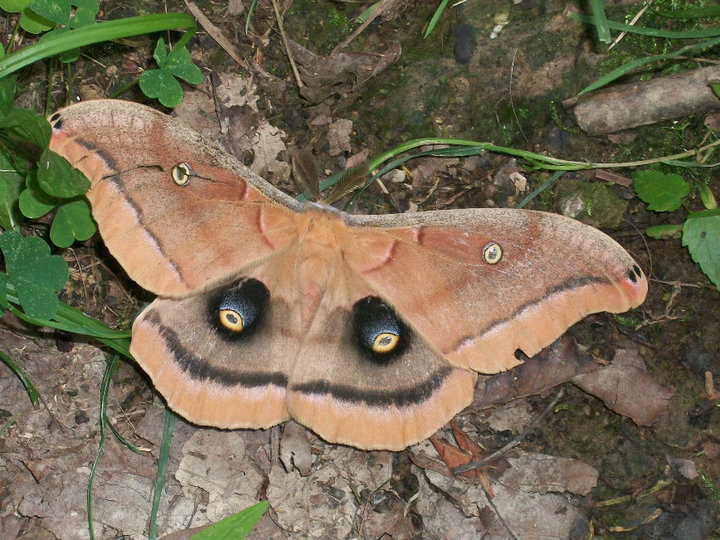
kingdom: Animalia
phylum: Arthropoda
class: Insecta
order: Lepidoptera
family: Saturniidae
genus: Antheraea
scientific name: Antheraea polyphemus
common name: Polyphemus moth
